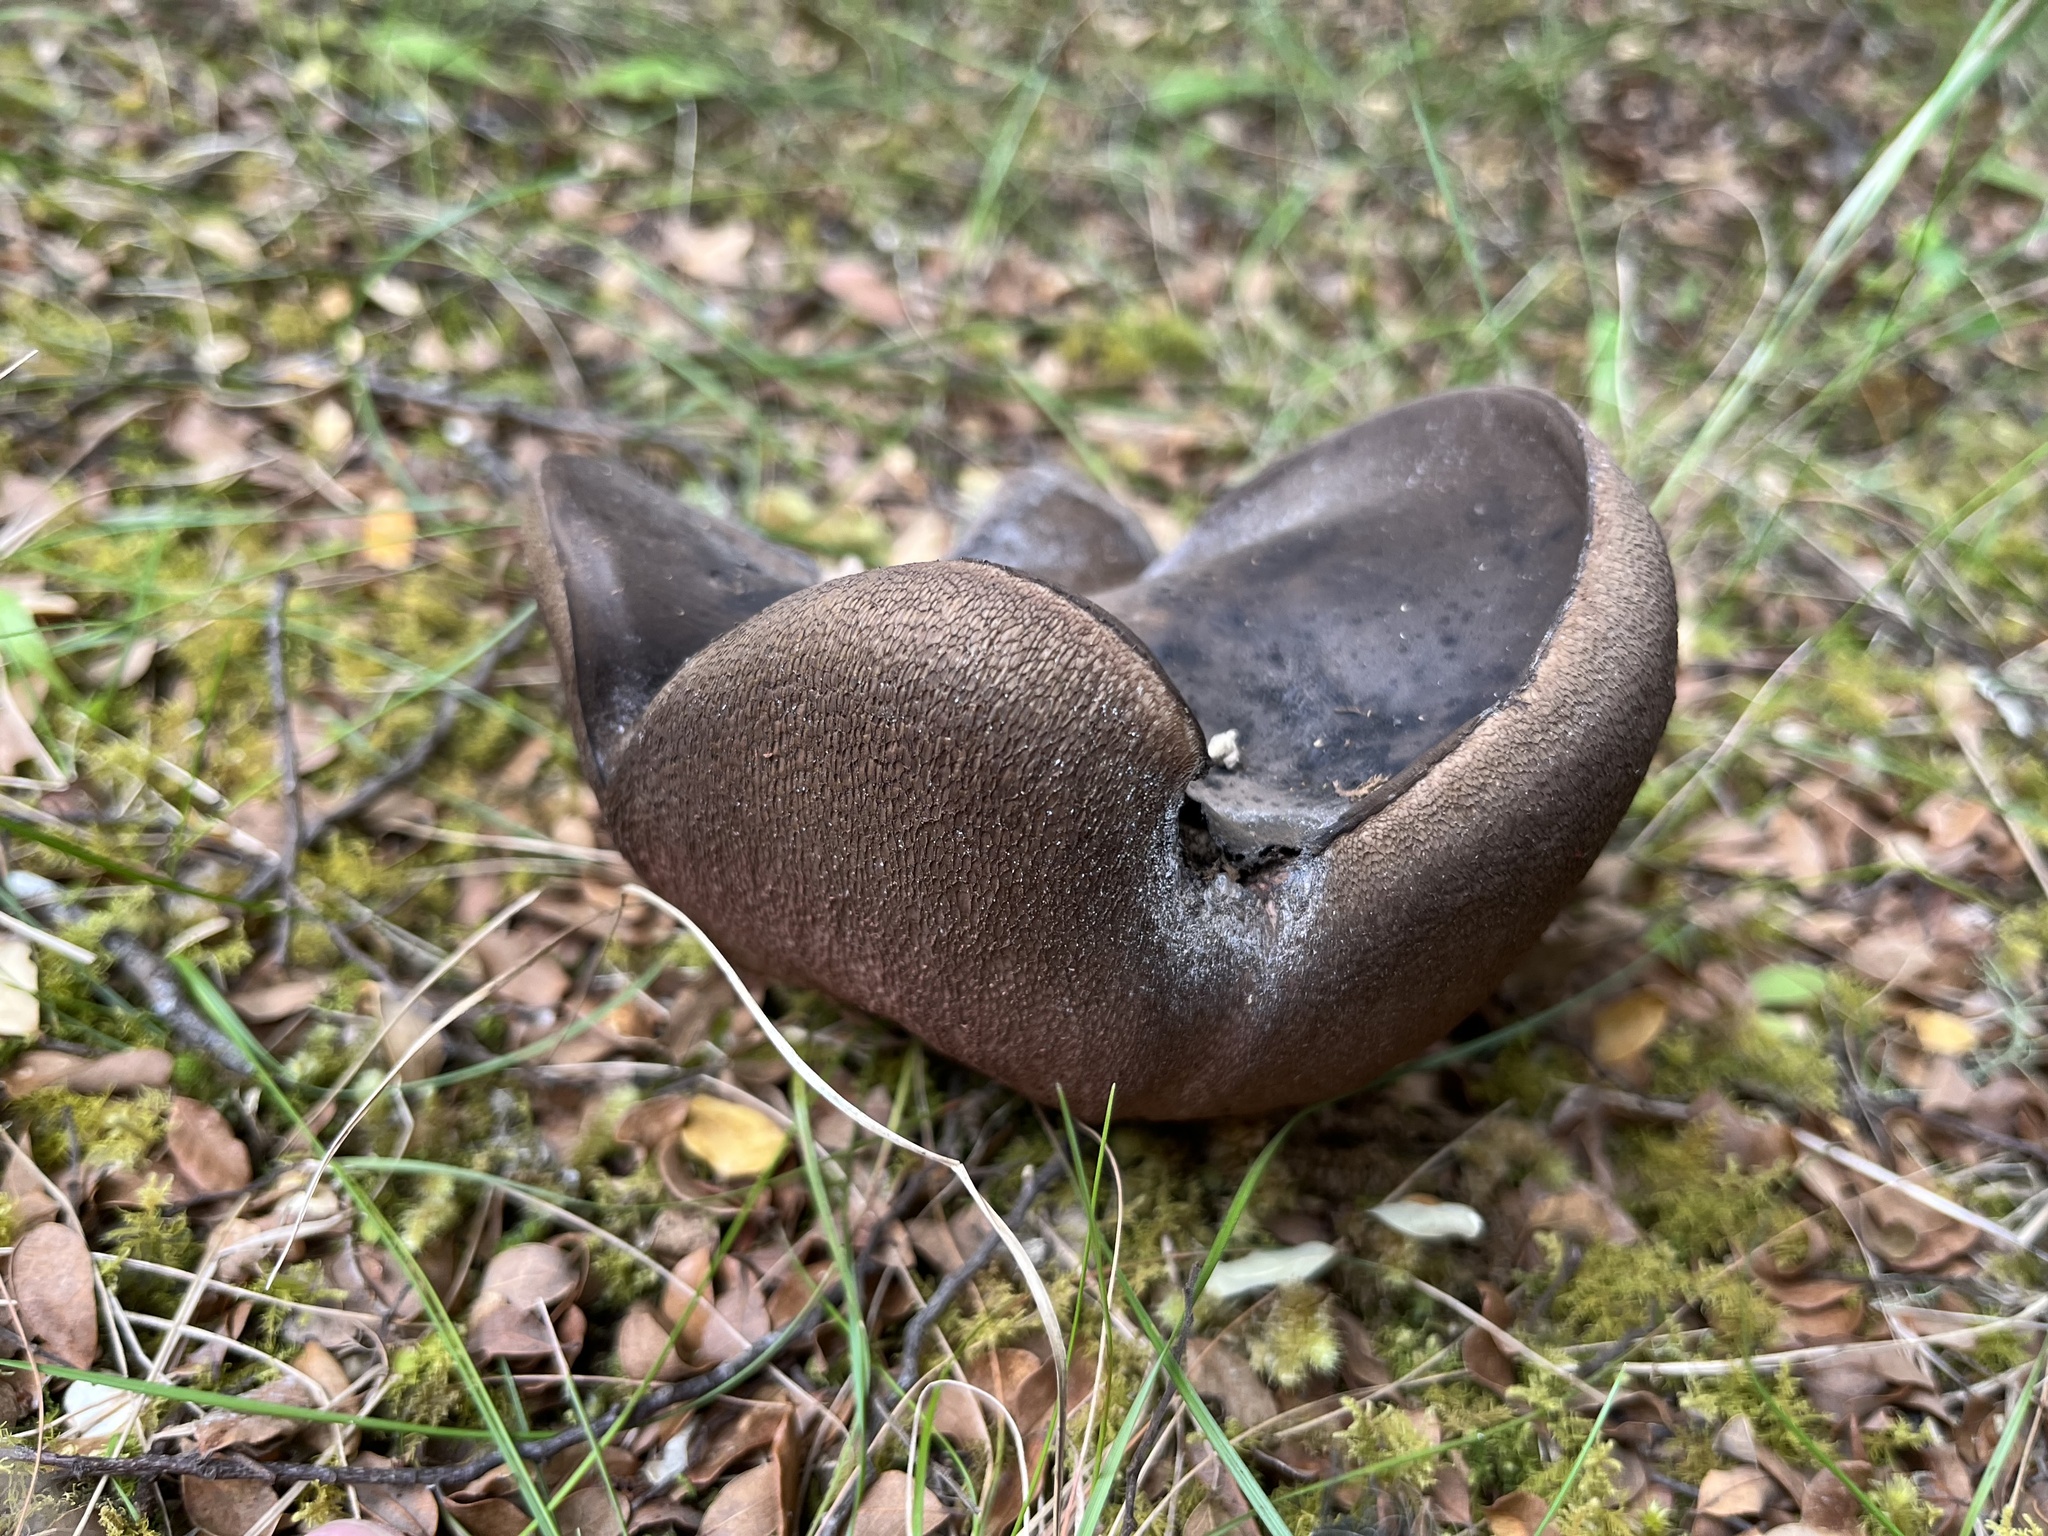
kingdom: Fungi
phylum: Basidiomycota
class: Agaricomycetes
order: Boletales
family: Boletaceae
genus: Porphyrellus
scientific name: Porphyrellus formosus
